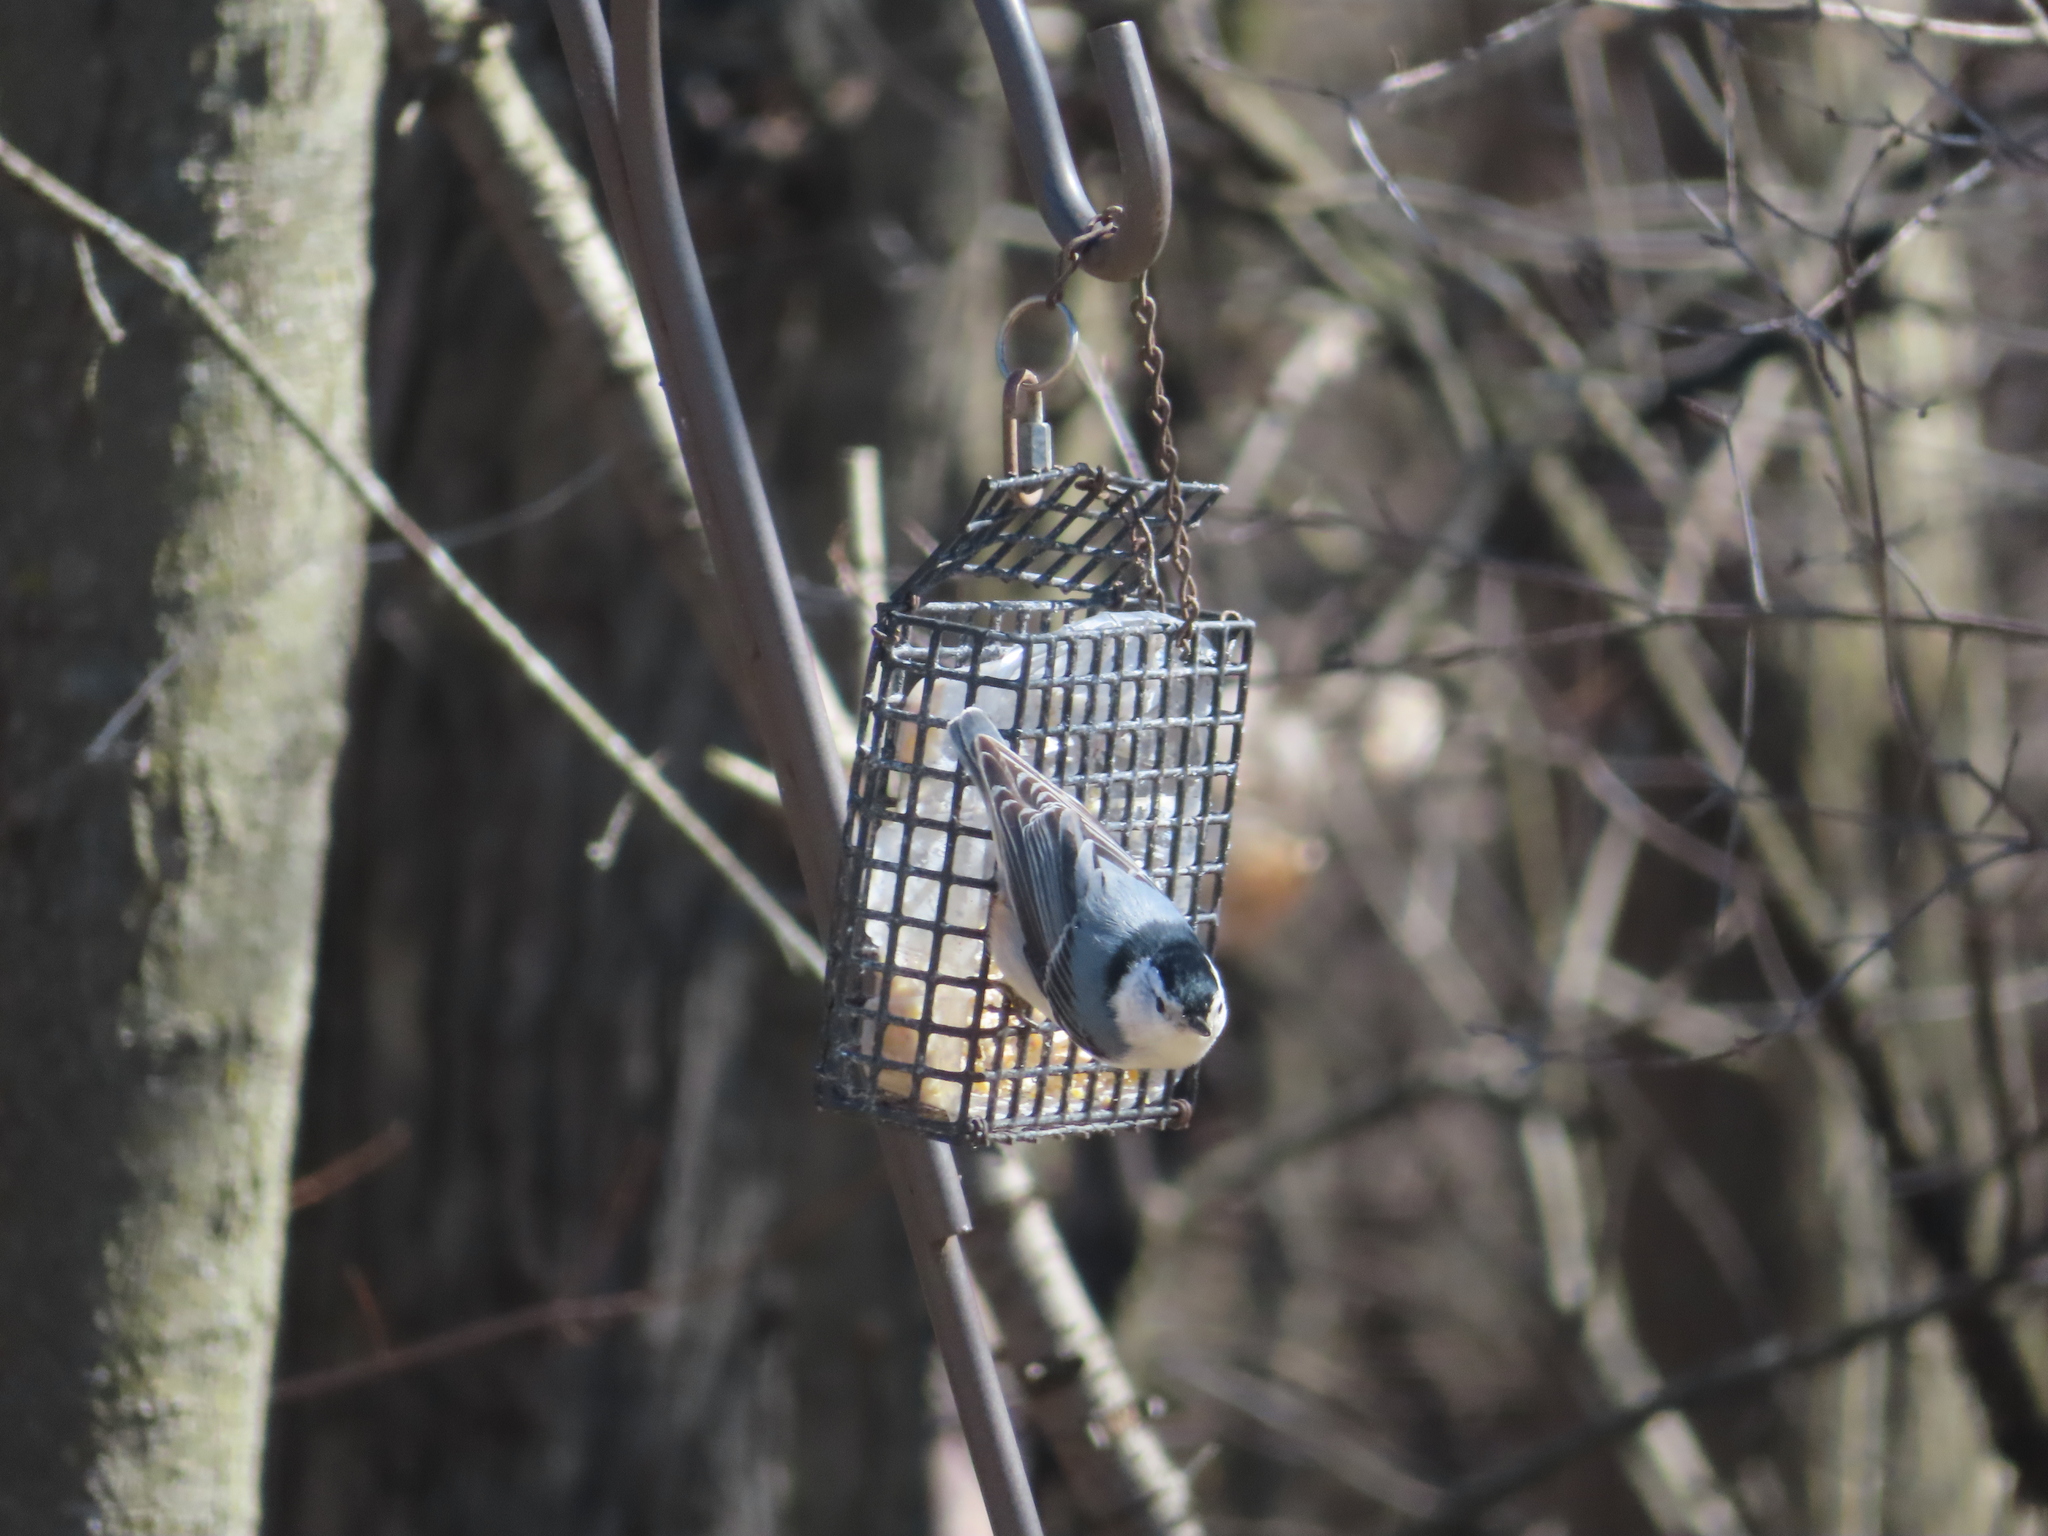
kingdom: Animalia
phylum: Chordata
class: Aves
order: Passeriformes
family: Sittidae
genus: Sitta
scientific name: Sitta carolinensis
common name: White-breasted nuthatch
